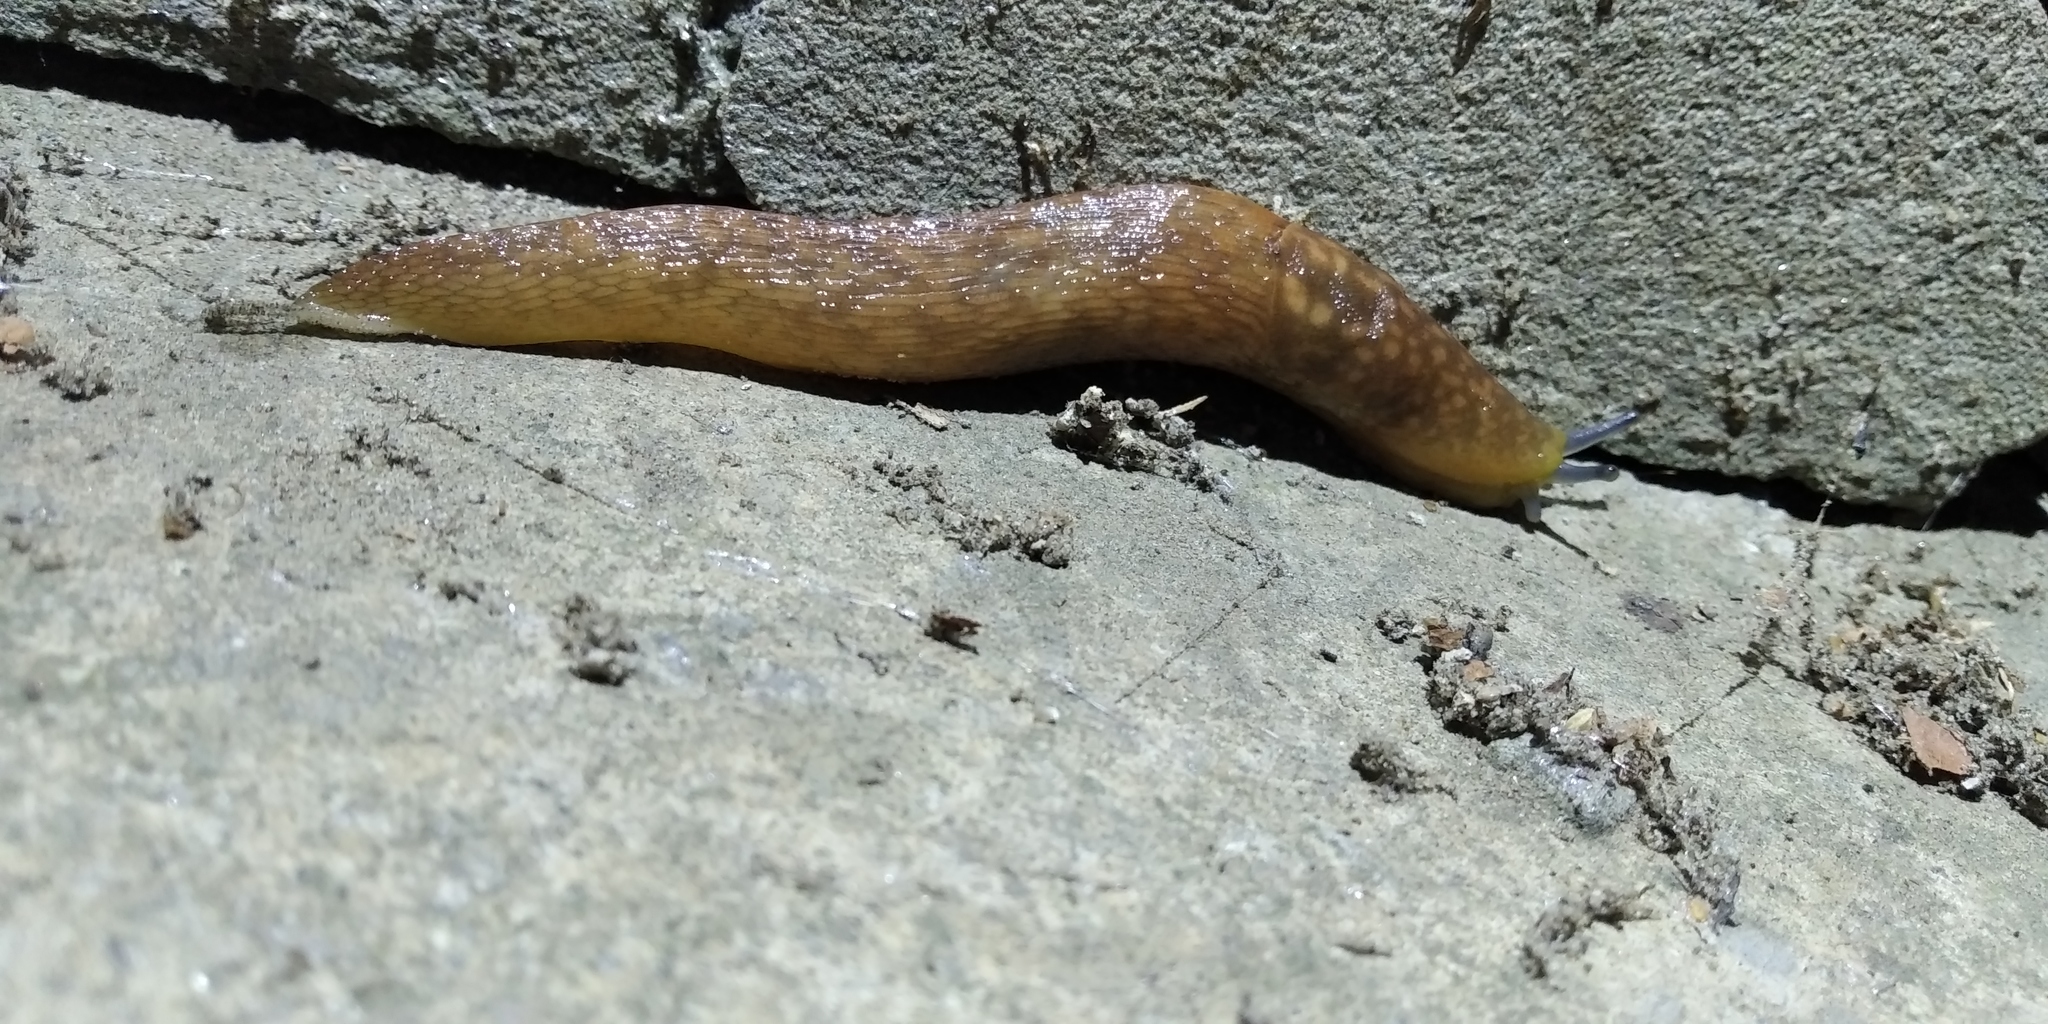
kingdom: Animalia
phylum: Mollusca
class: Gastropoda
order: Stylommatophora
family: Limacidae
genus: Limacus
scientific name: Limacus
